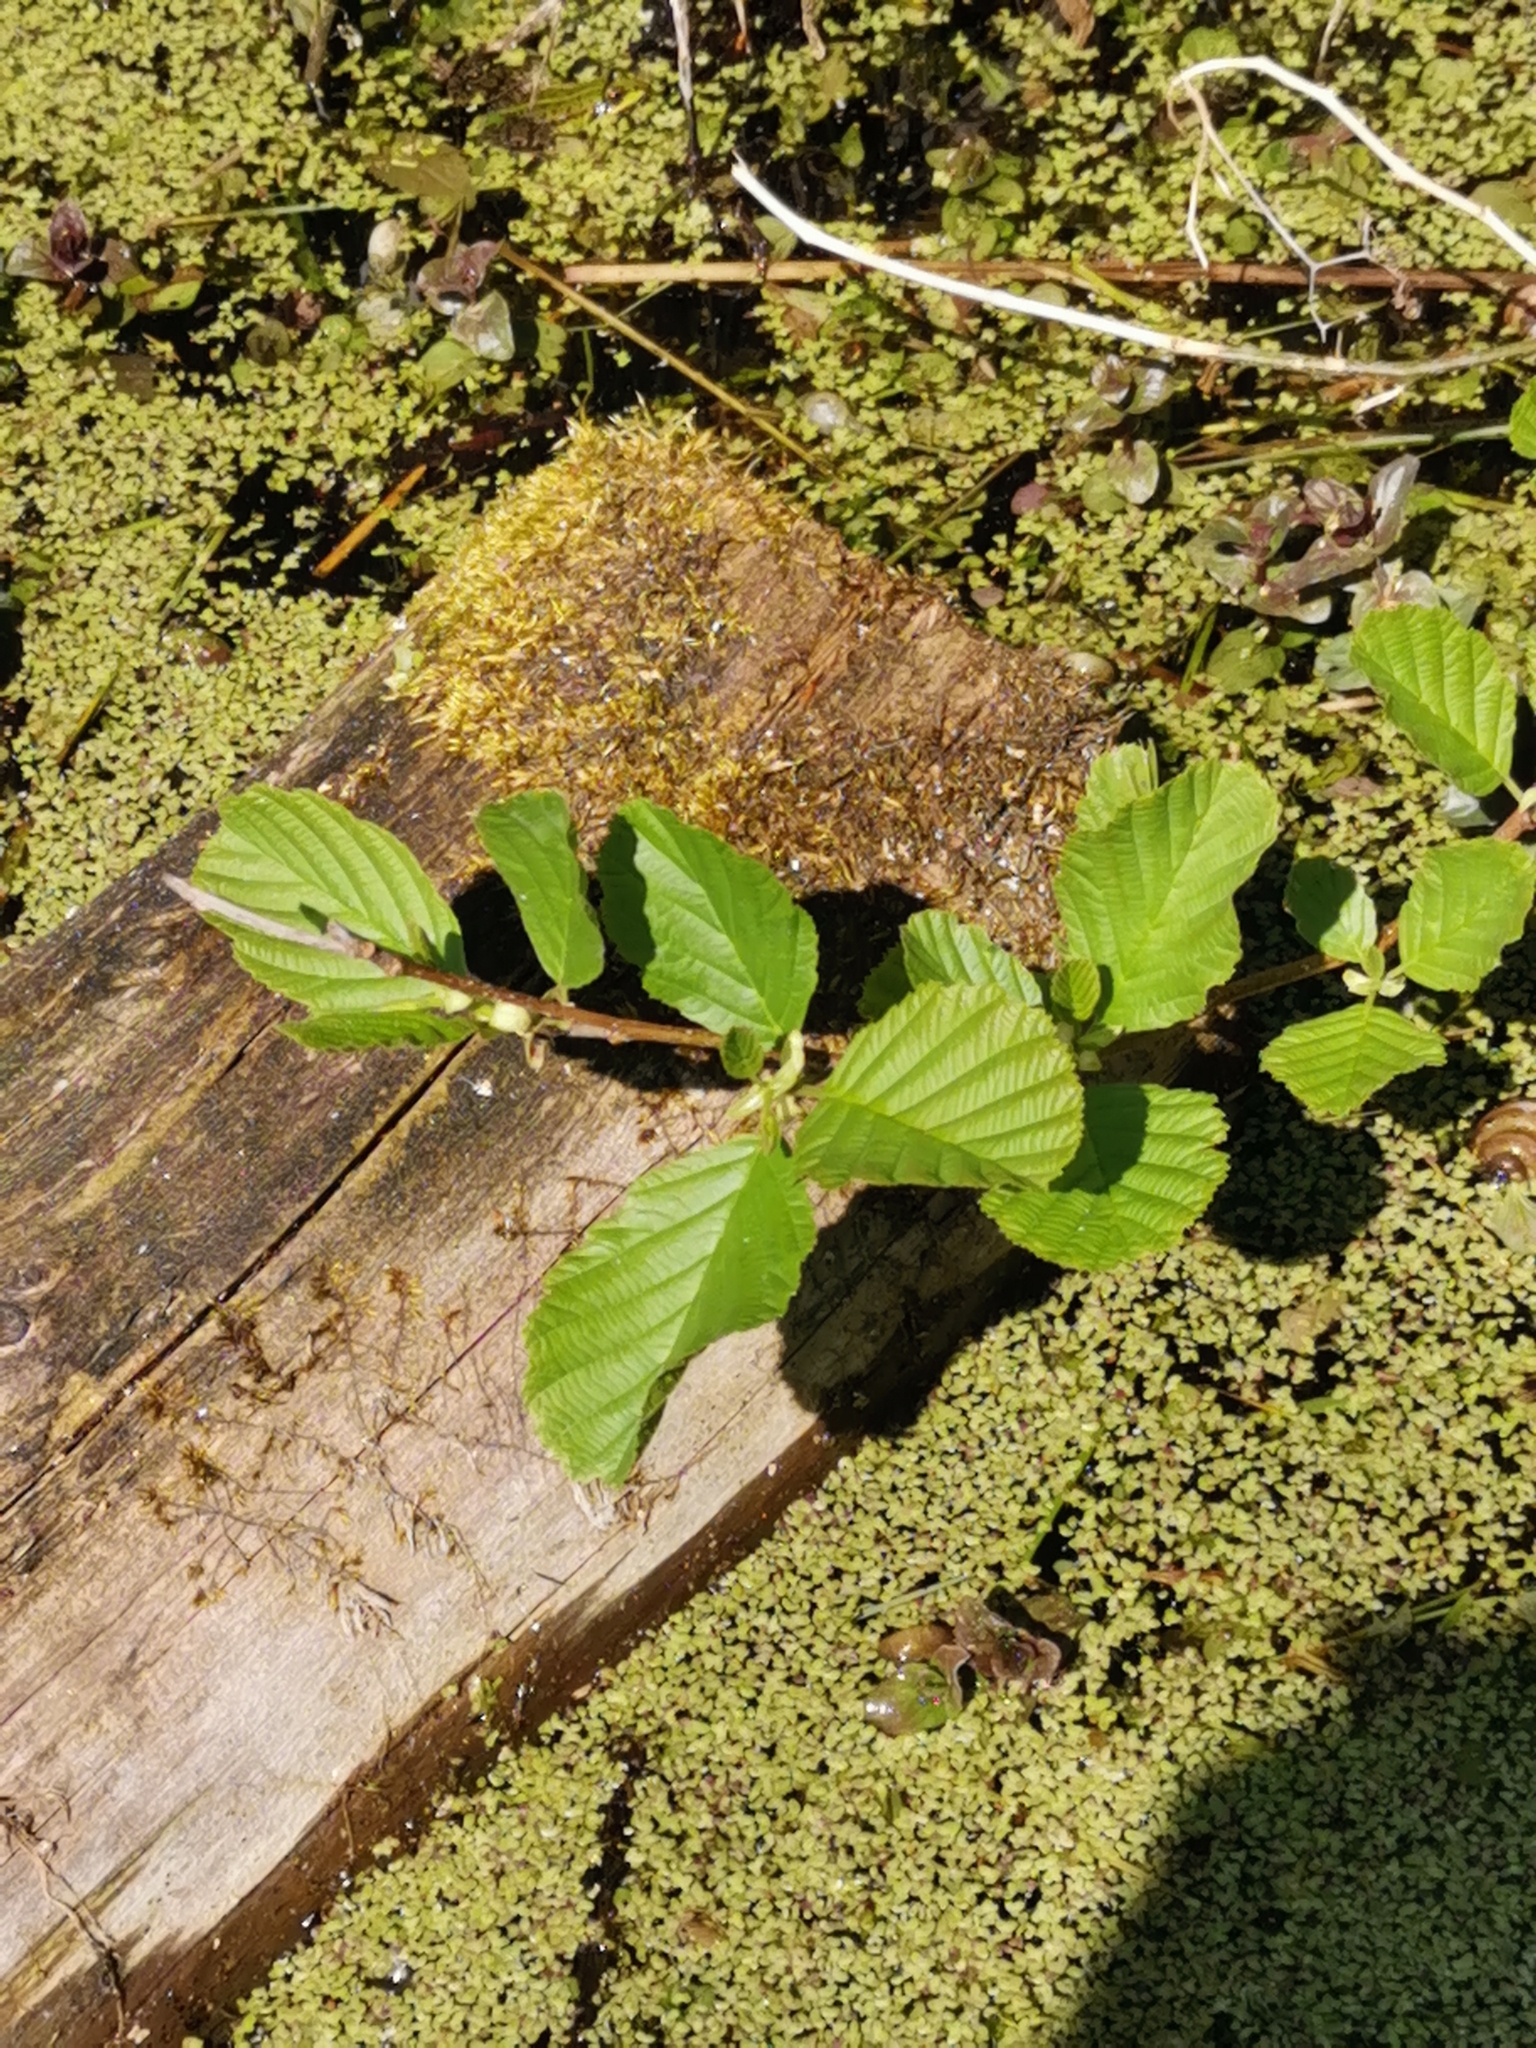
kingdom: Plantae
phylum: Tracheophyta
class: Magnoliopsida
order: Fagales
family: Betulaceae
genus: Alnus
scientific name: Alnus glutinosa
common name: Black alder
